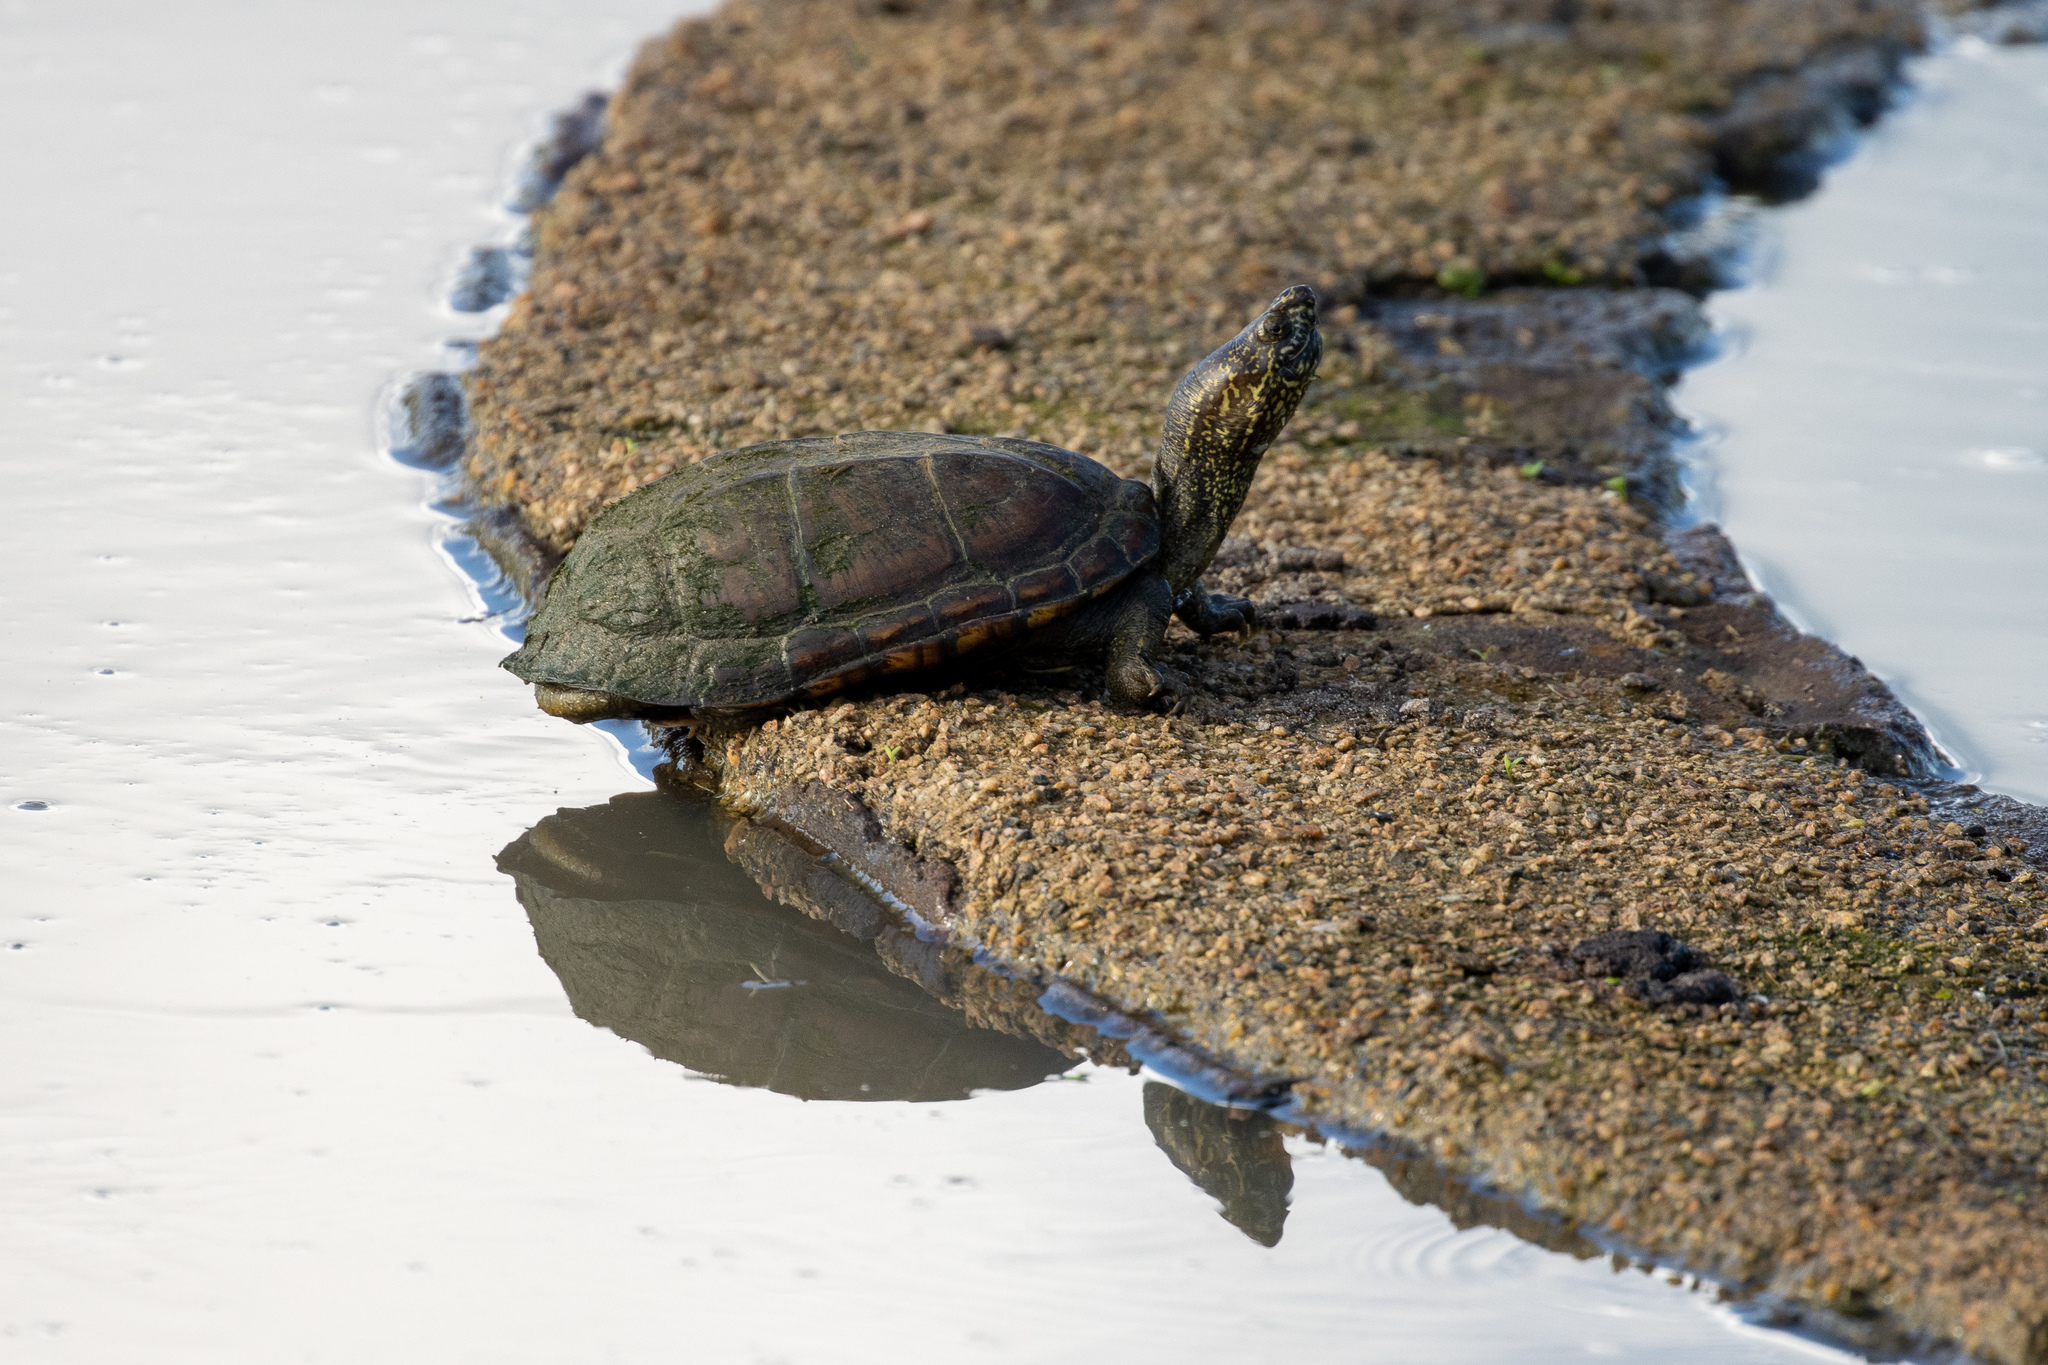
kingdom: Animalia
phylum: Chordata
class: Testudines
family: Kinosternidae
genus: Kinosternon
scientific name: Kinosternon scorpioides
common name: Scorpion mud turtle
